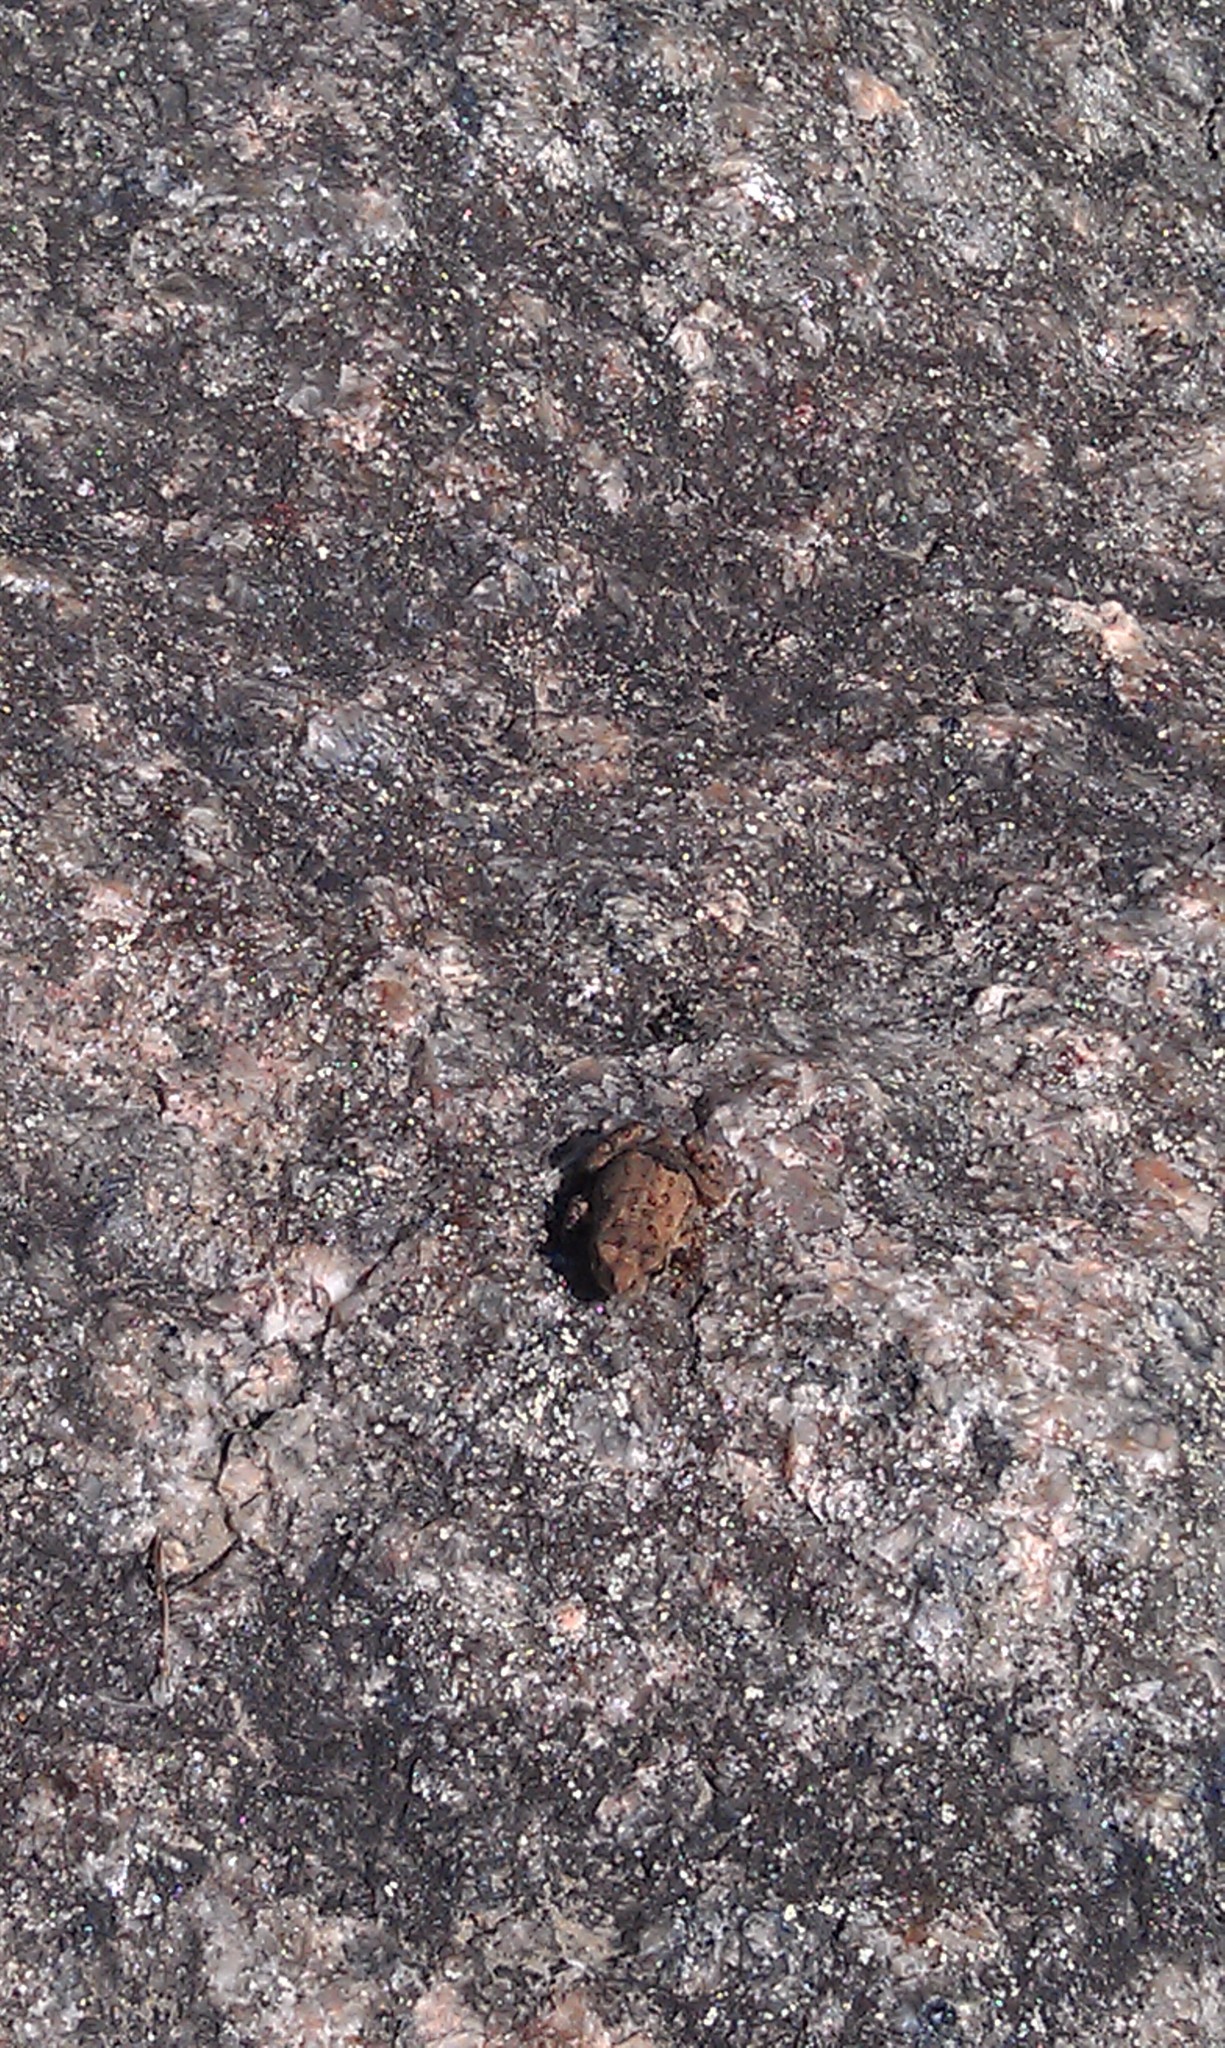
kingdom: Animalia
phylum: Chordata
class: Amphibia
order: Anura
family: Bufonidae
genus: Anaxyrus
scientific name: Anaxyrus
